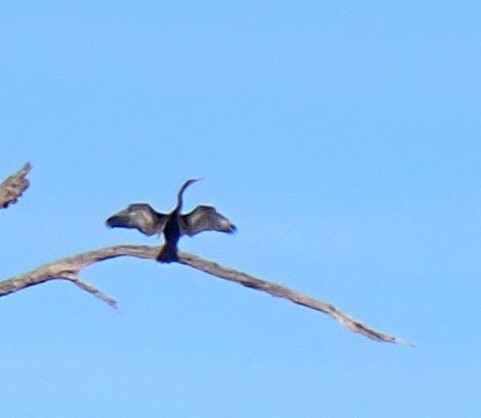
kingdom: Animalia
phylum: Chordata
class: Aves
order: Suliformes
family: Anhingidae
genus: Anhinga
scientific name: Anhinga anhinga
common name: Anhinga
